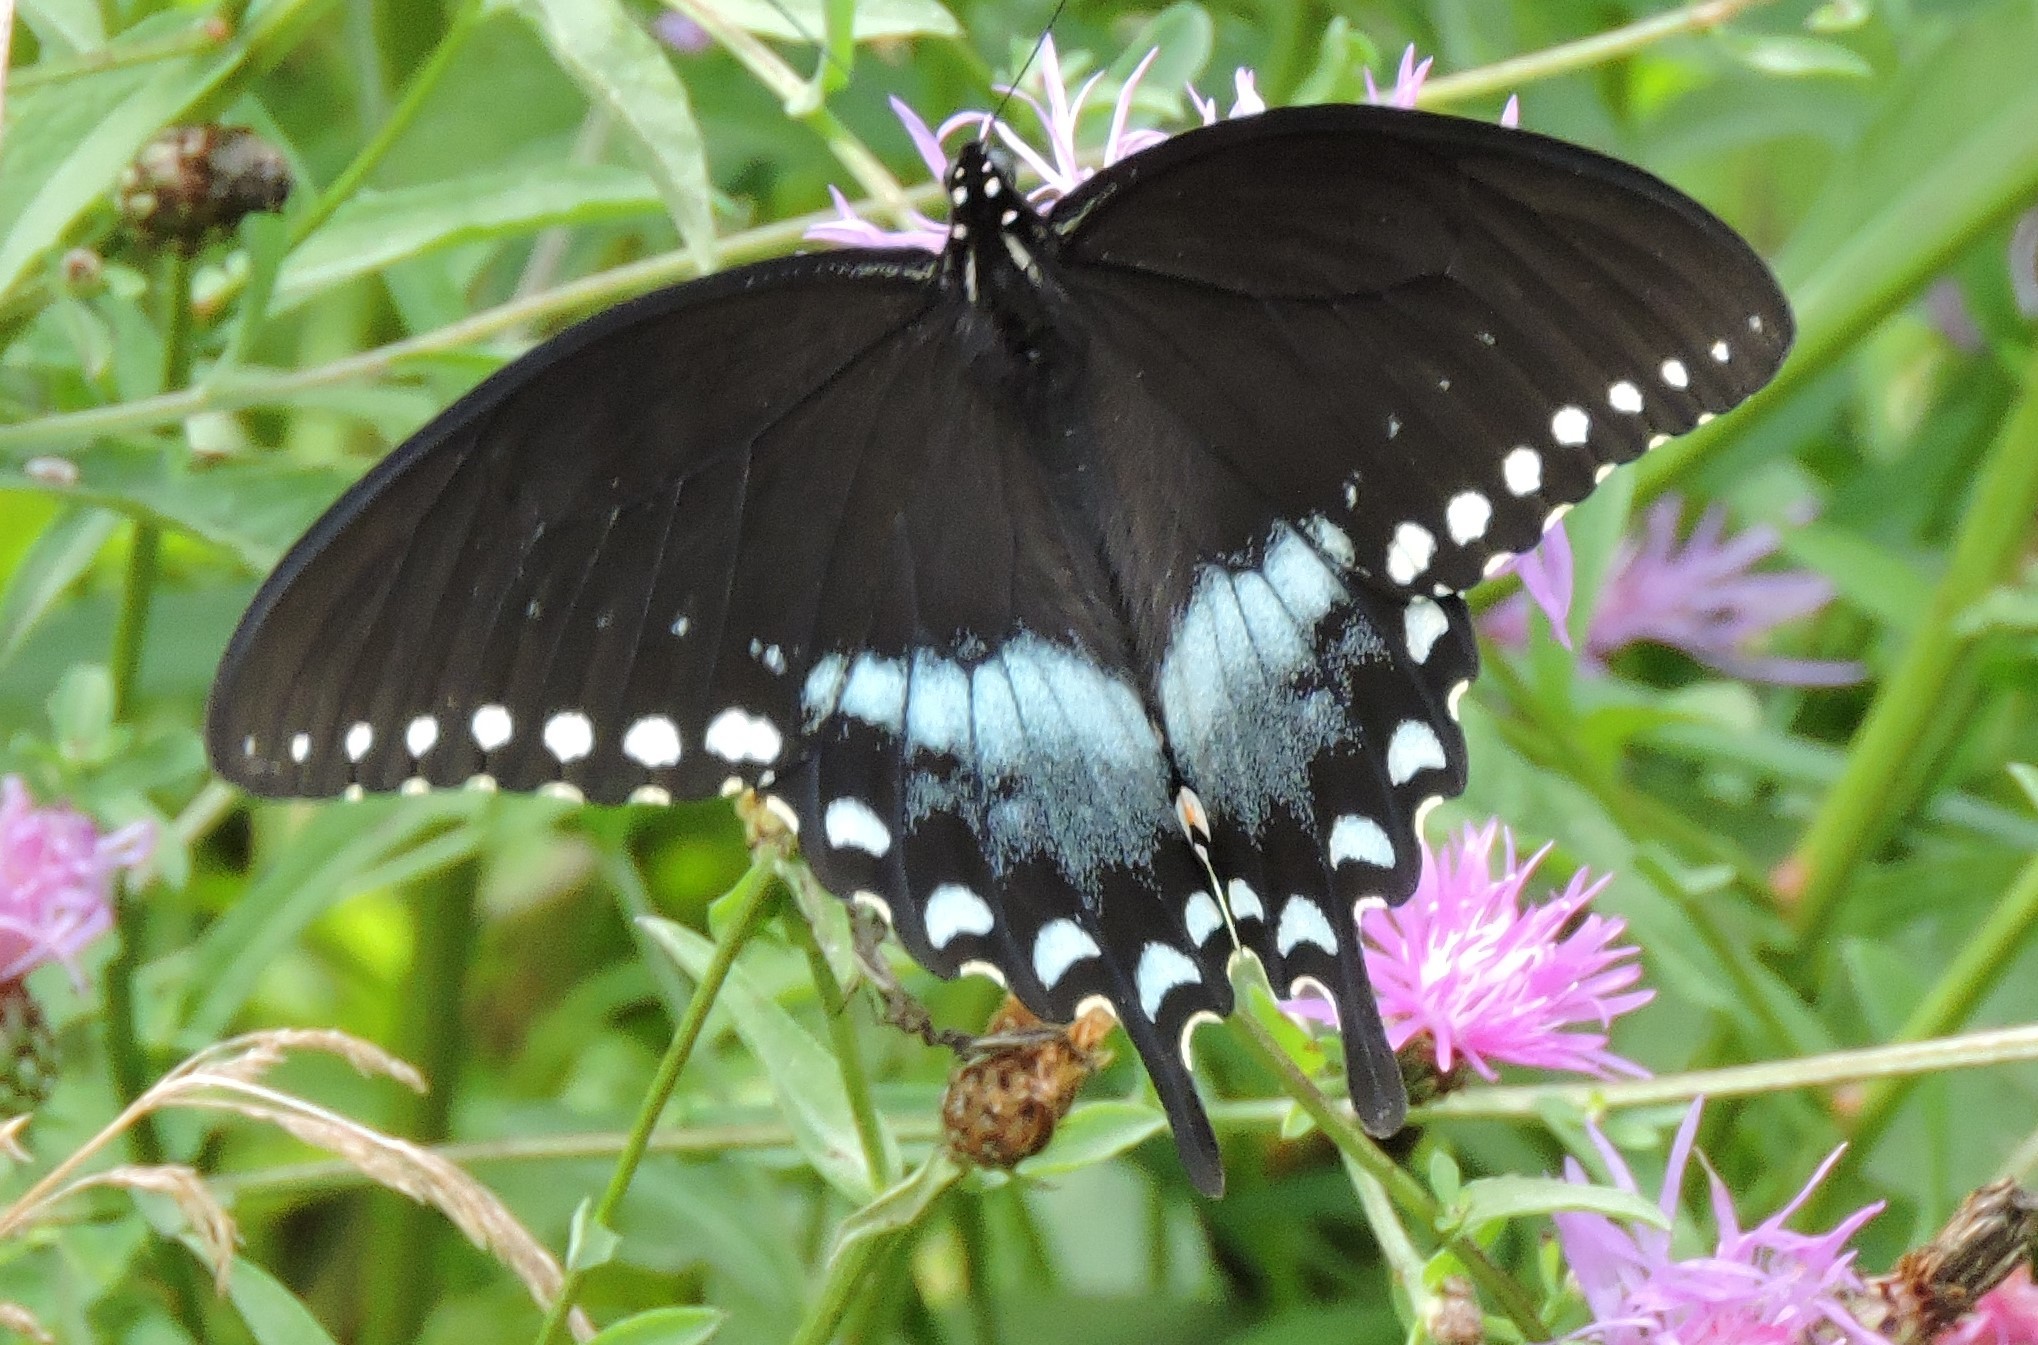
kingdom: Animalia
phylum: Arthropoda
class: Insecta
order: Lepidoptera
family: Papilionidae
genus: Papilio
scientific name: Papilio troilus
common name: Spicebush swallowtail
